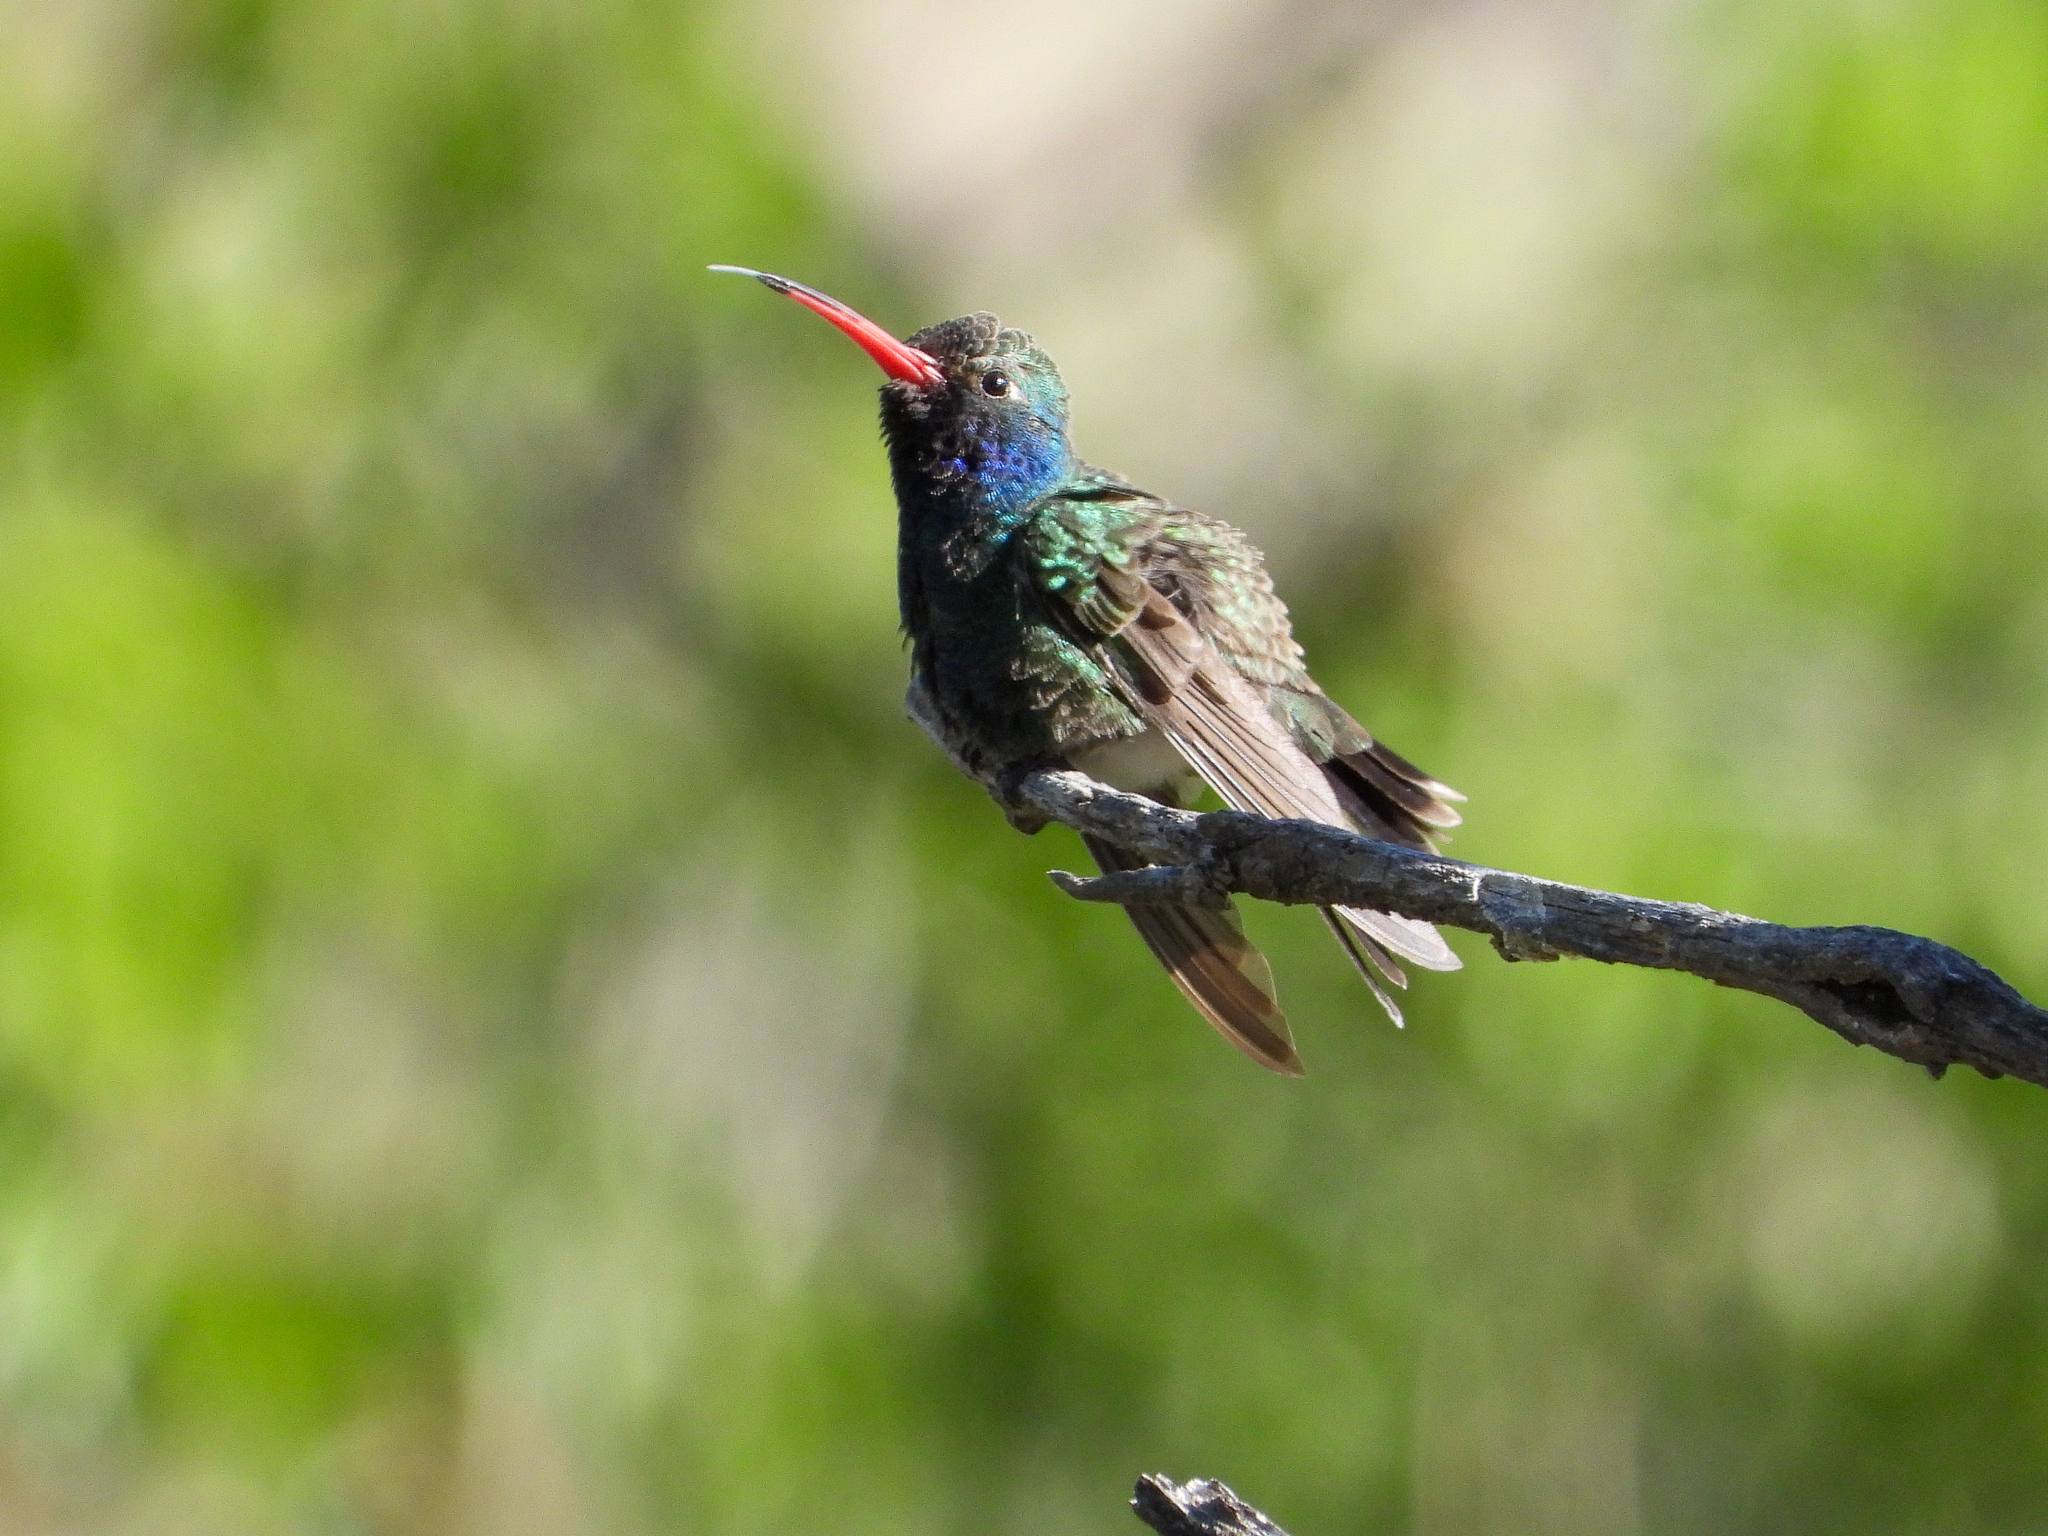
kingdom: Animalia
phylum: Chordata
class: Aves
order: Apodiformes
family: Trochilidae
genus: Cynanthus
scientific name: Cynanthus latirostris
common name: Broad-billed hummingbird
